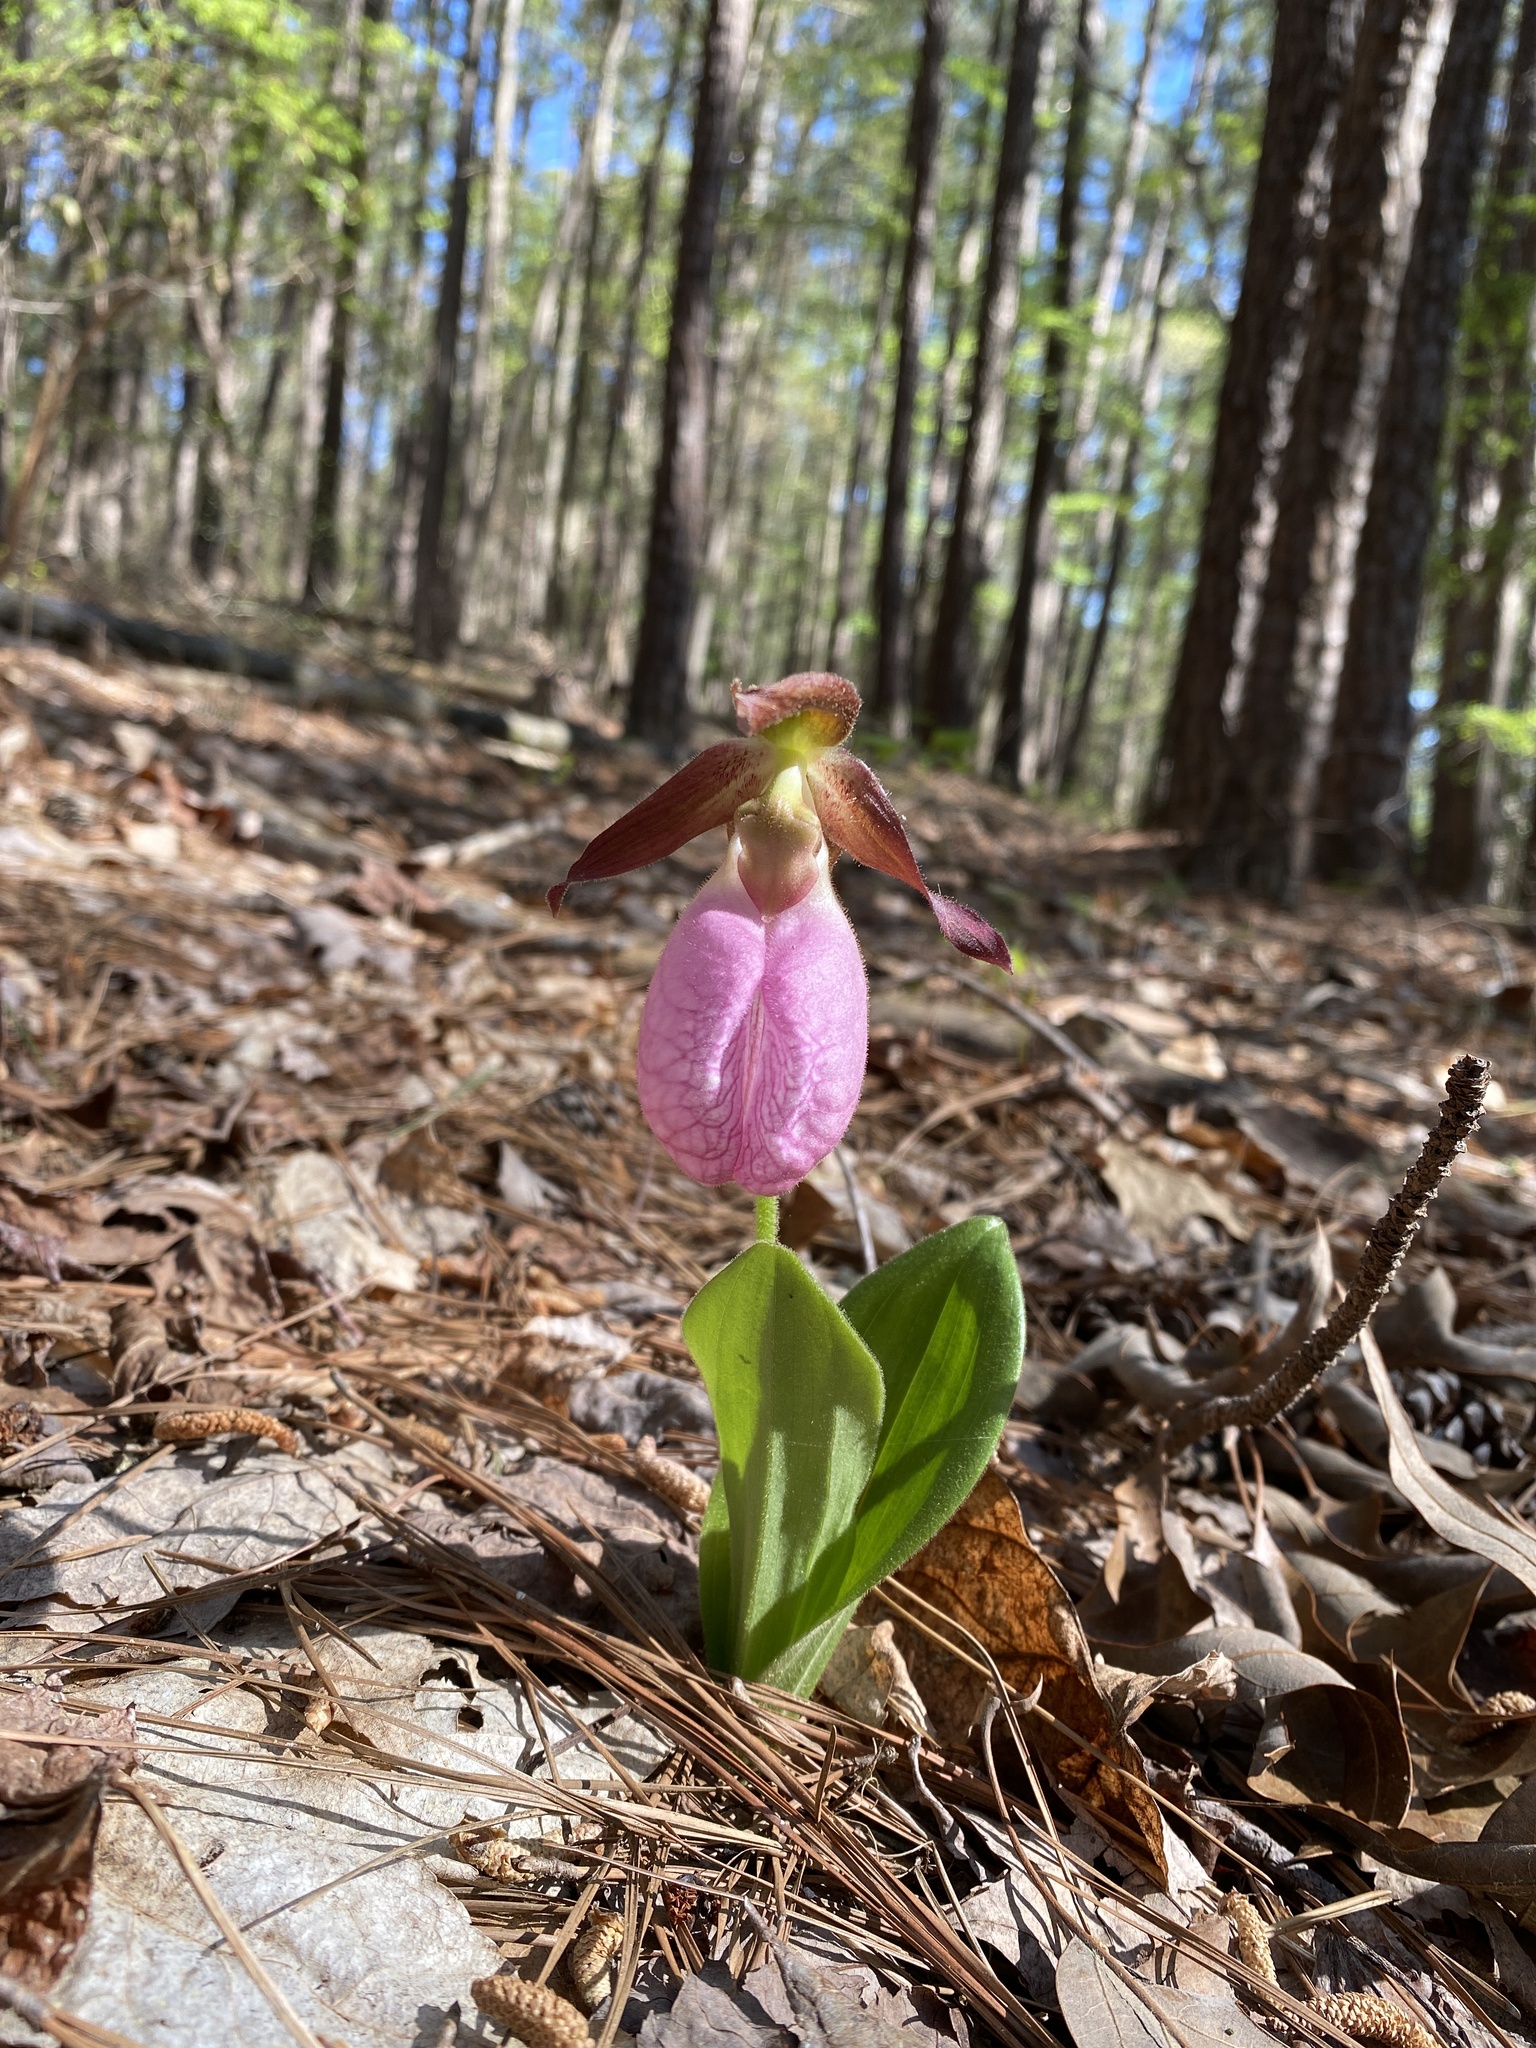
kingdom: Plantae
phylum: Tracheophyta
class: Liliopsida
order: Asparagales
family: Orchidaceae
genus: Cypripedium
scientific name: Cypripedium acaule
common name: Pink lady's-slipper
